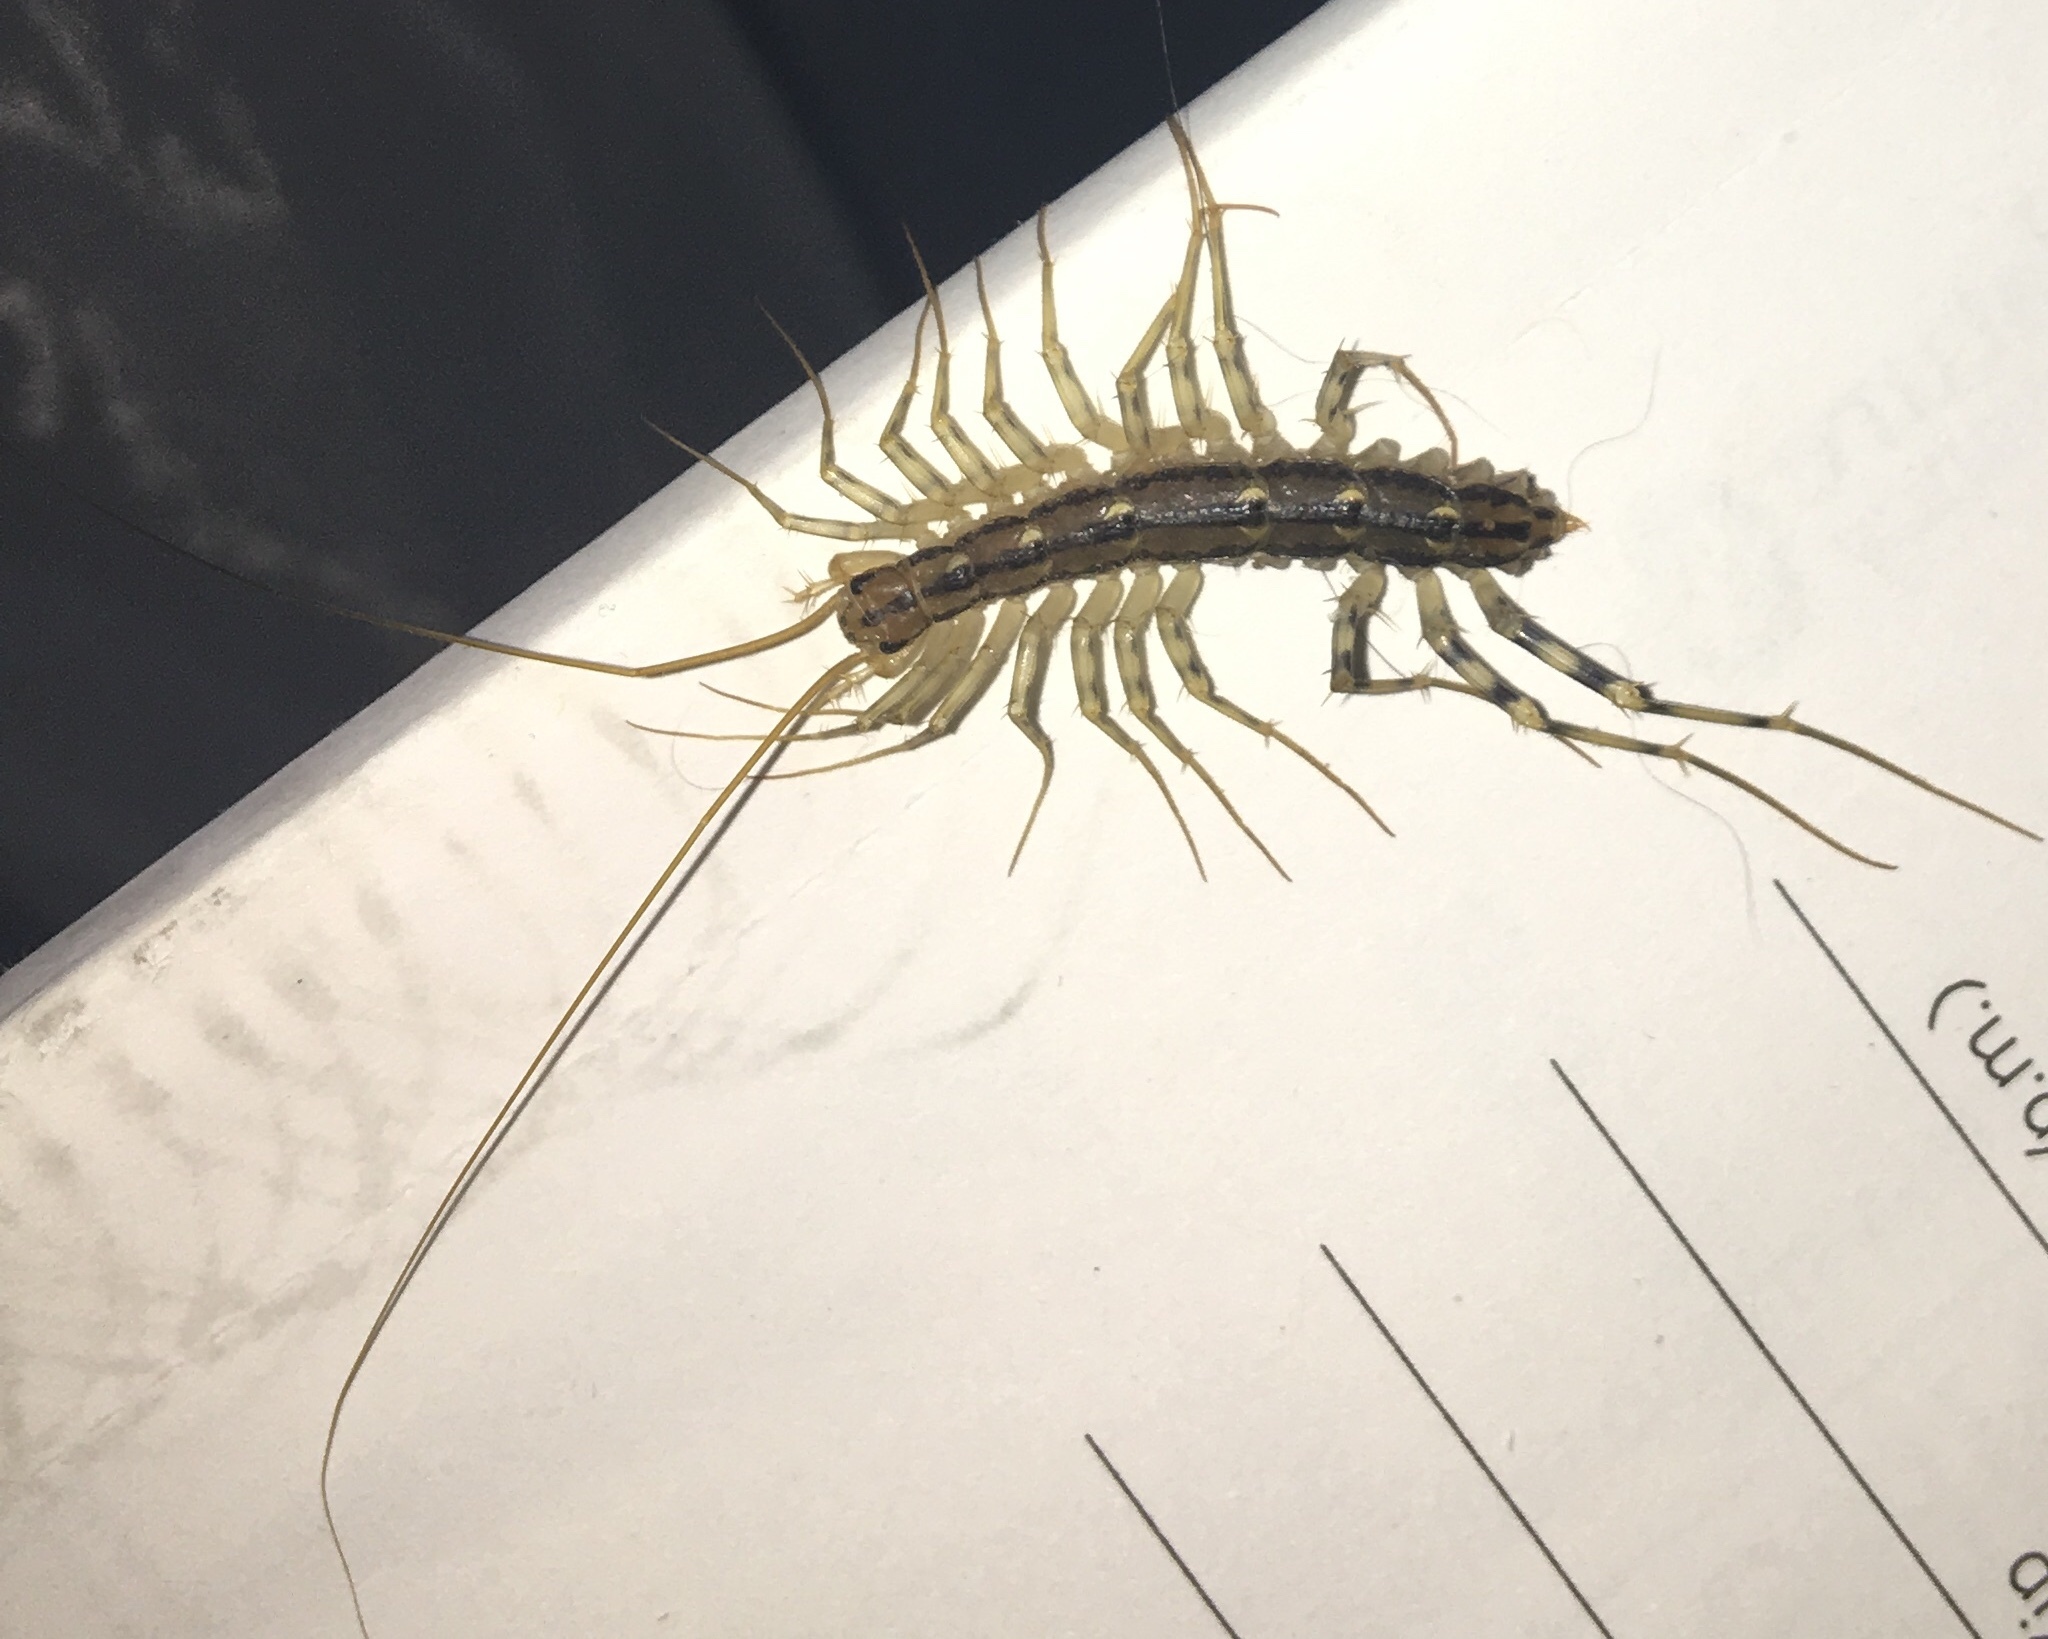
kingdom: Animalia
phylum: Arthropoda
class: Chilopoda
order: Scutigeromorpha
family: Scutigeridae
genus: Scutigera
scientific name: Scutigera coleoptrata
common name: House centipede
